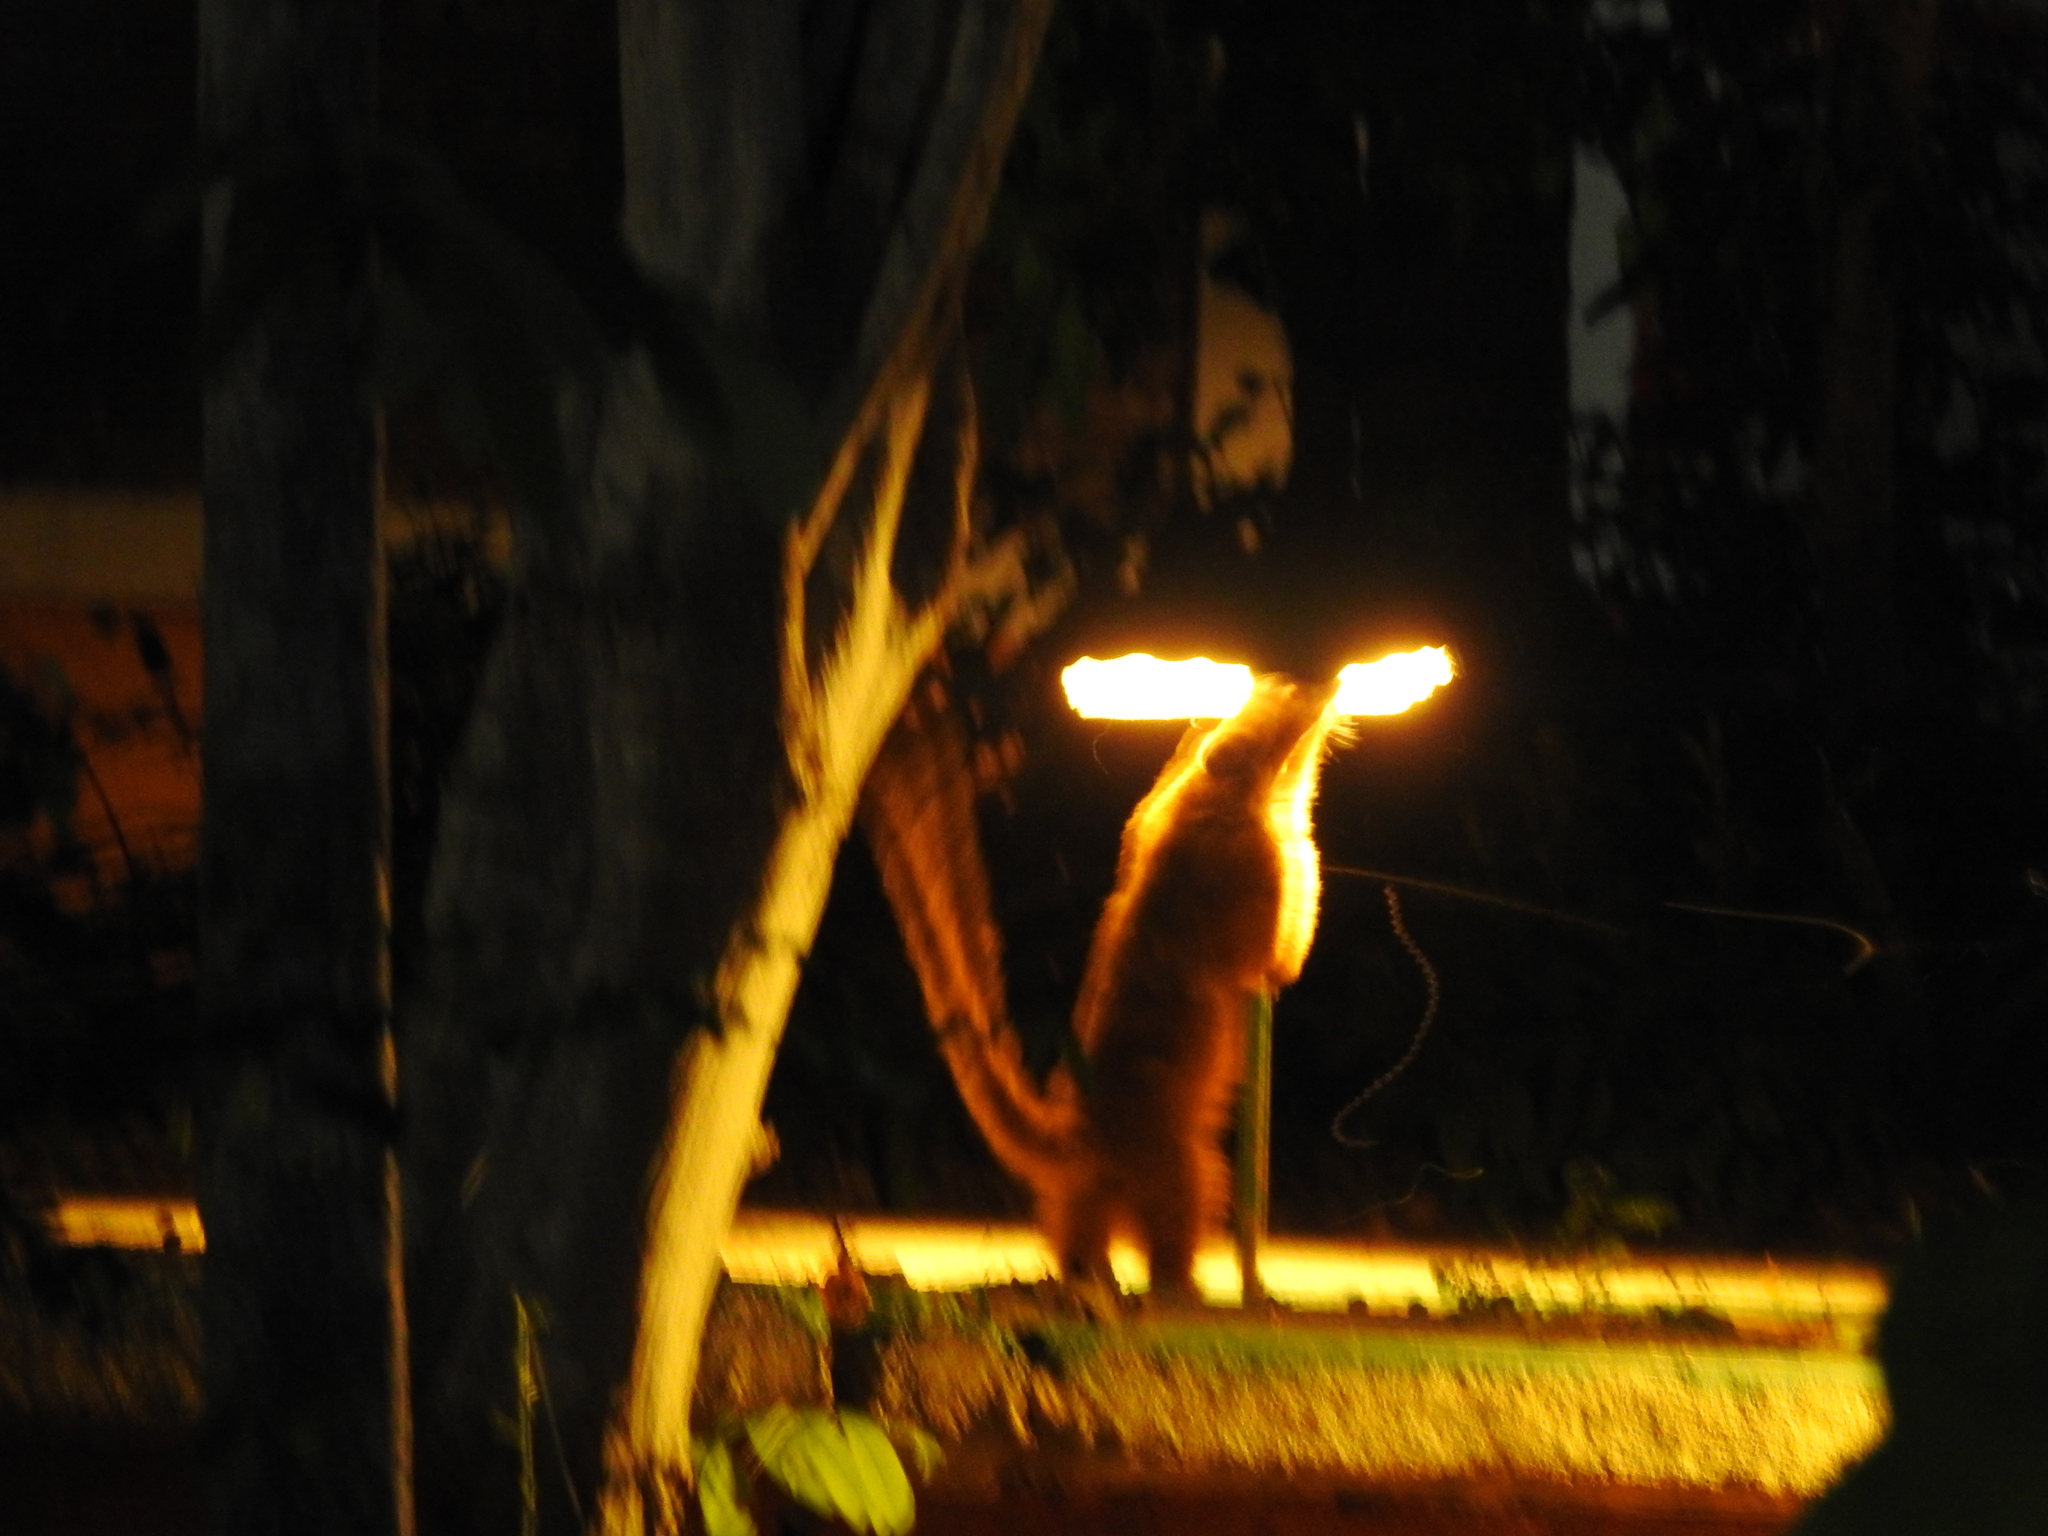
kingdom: Animalia
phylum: Chordata
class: Mammalia
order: Carnivora
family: Procyonidae
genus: Nasua
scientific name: Nasua narica
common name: White-nosed coati
